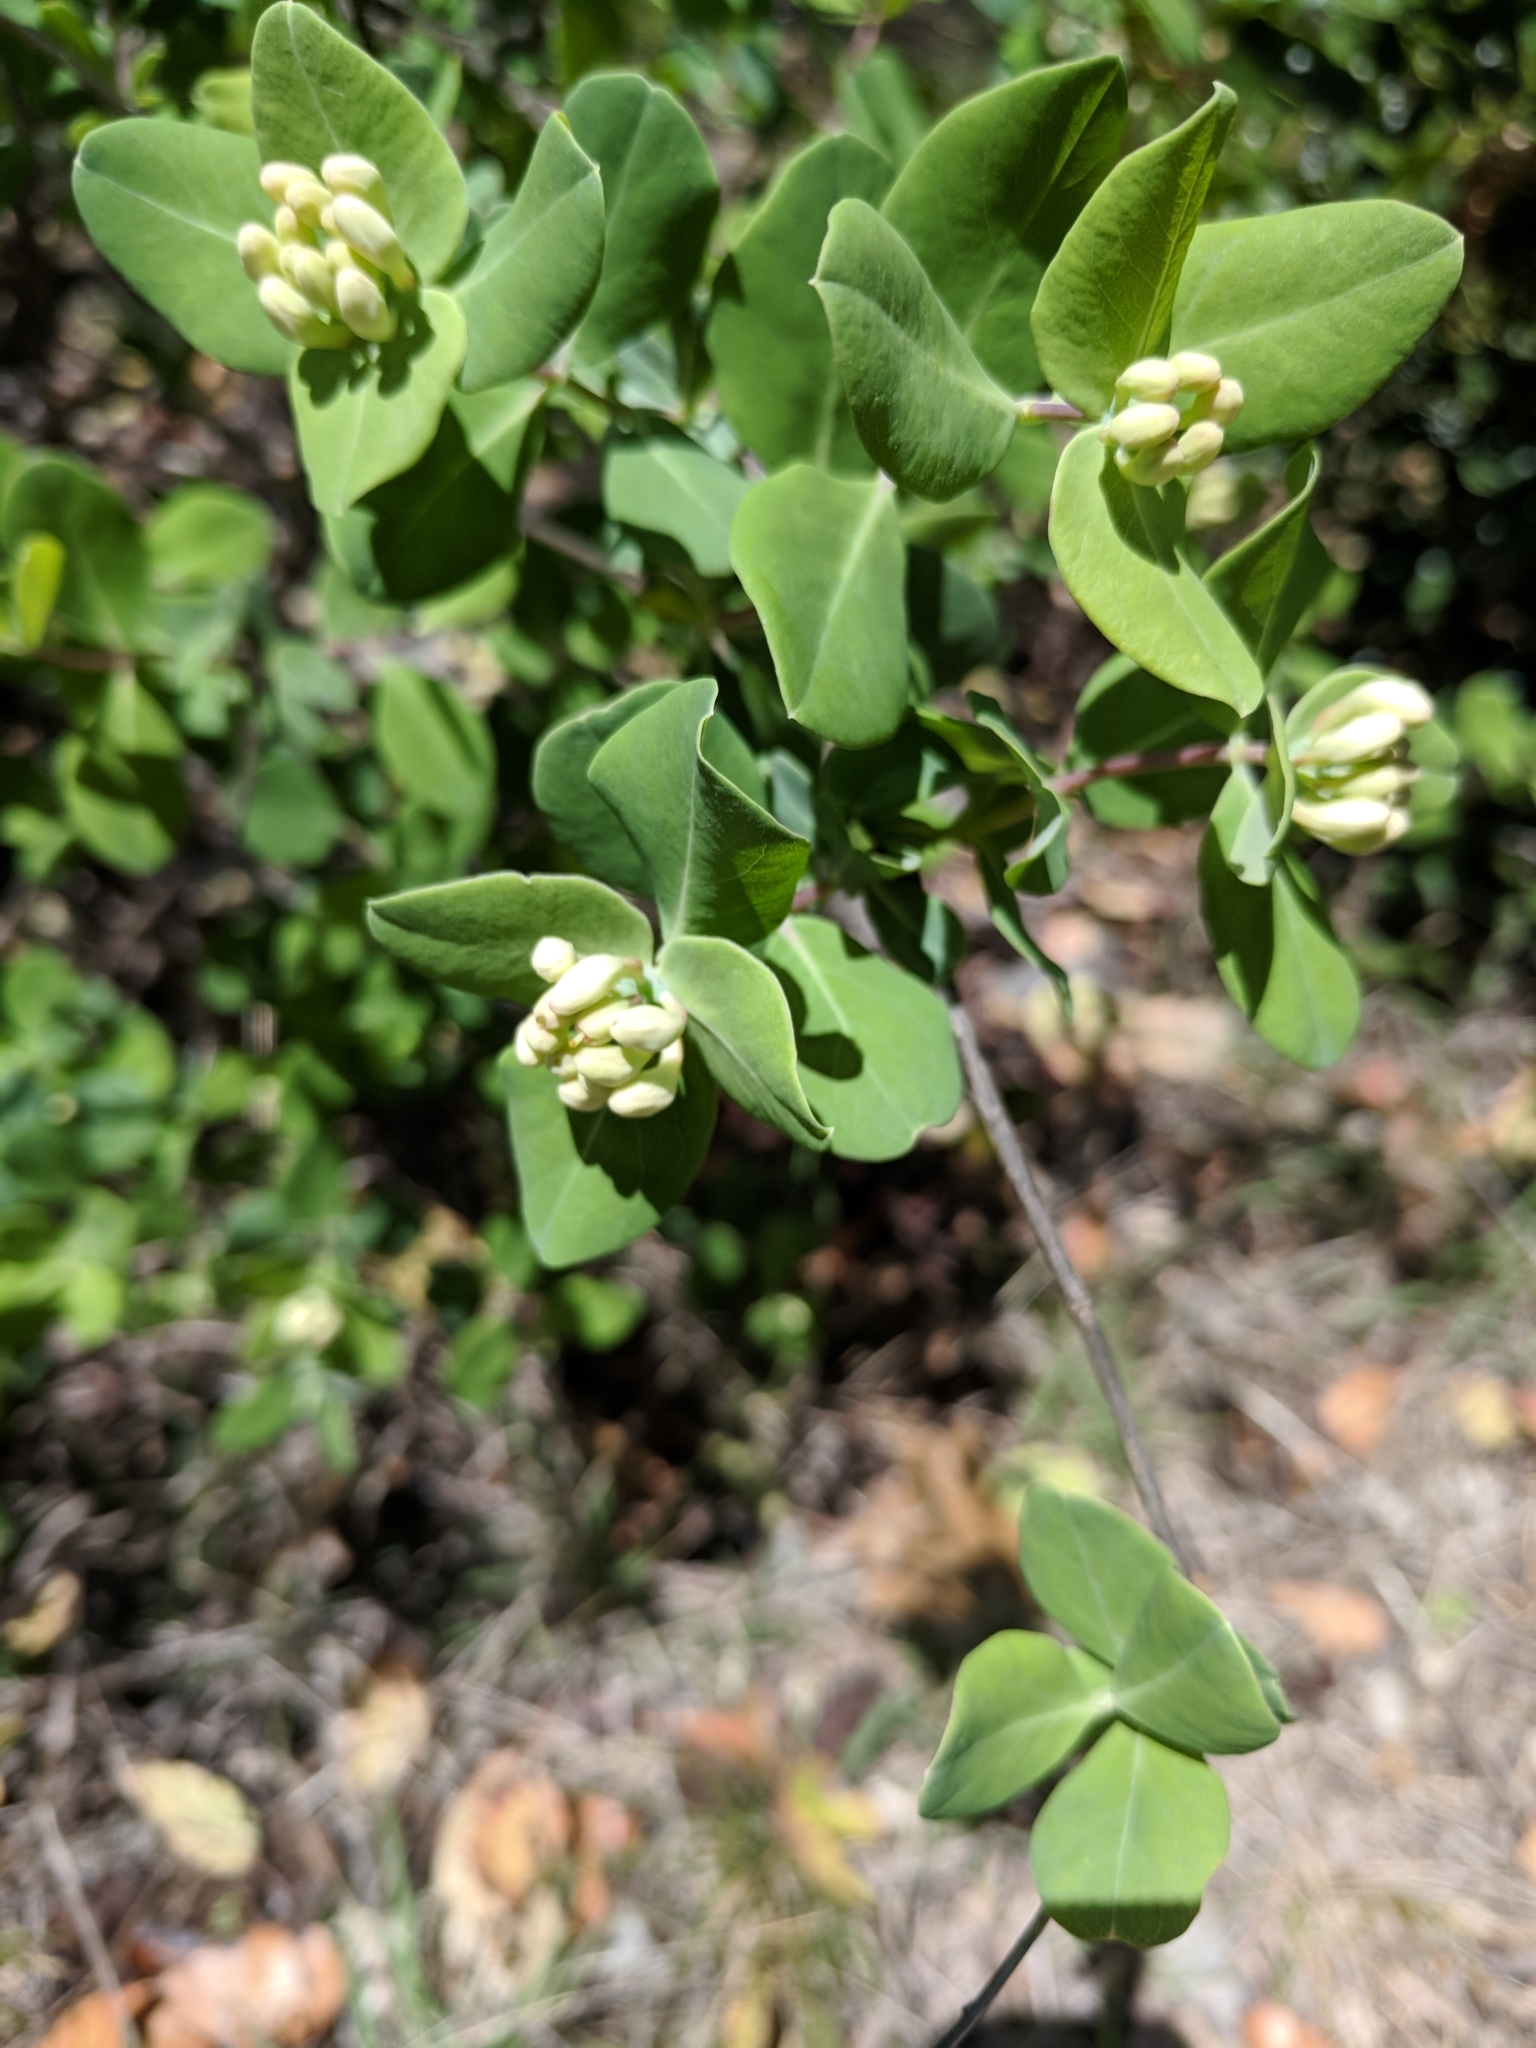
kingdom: Plantae
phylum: Tracheophyta
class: Magnoliopsida
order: Dipsacales
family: Caprifoliaceae
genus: Lonicera
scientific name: Lonicera albiflora
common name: White honeysuckle
